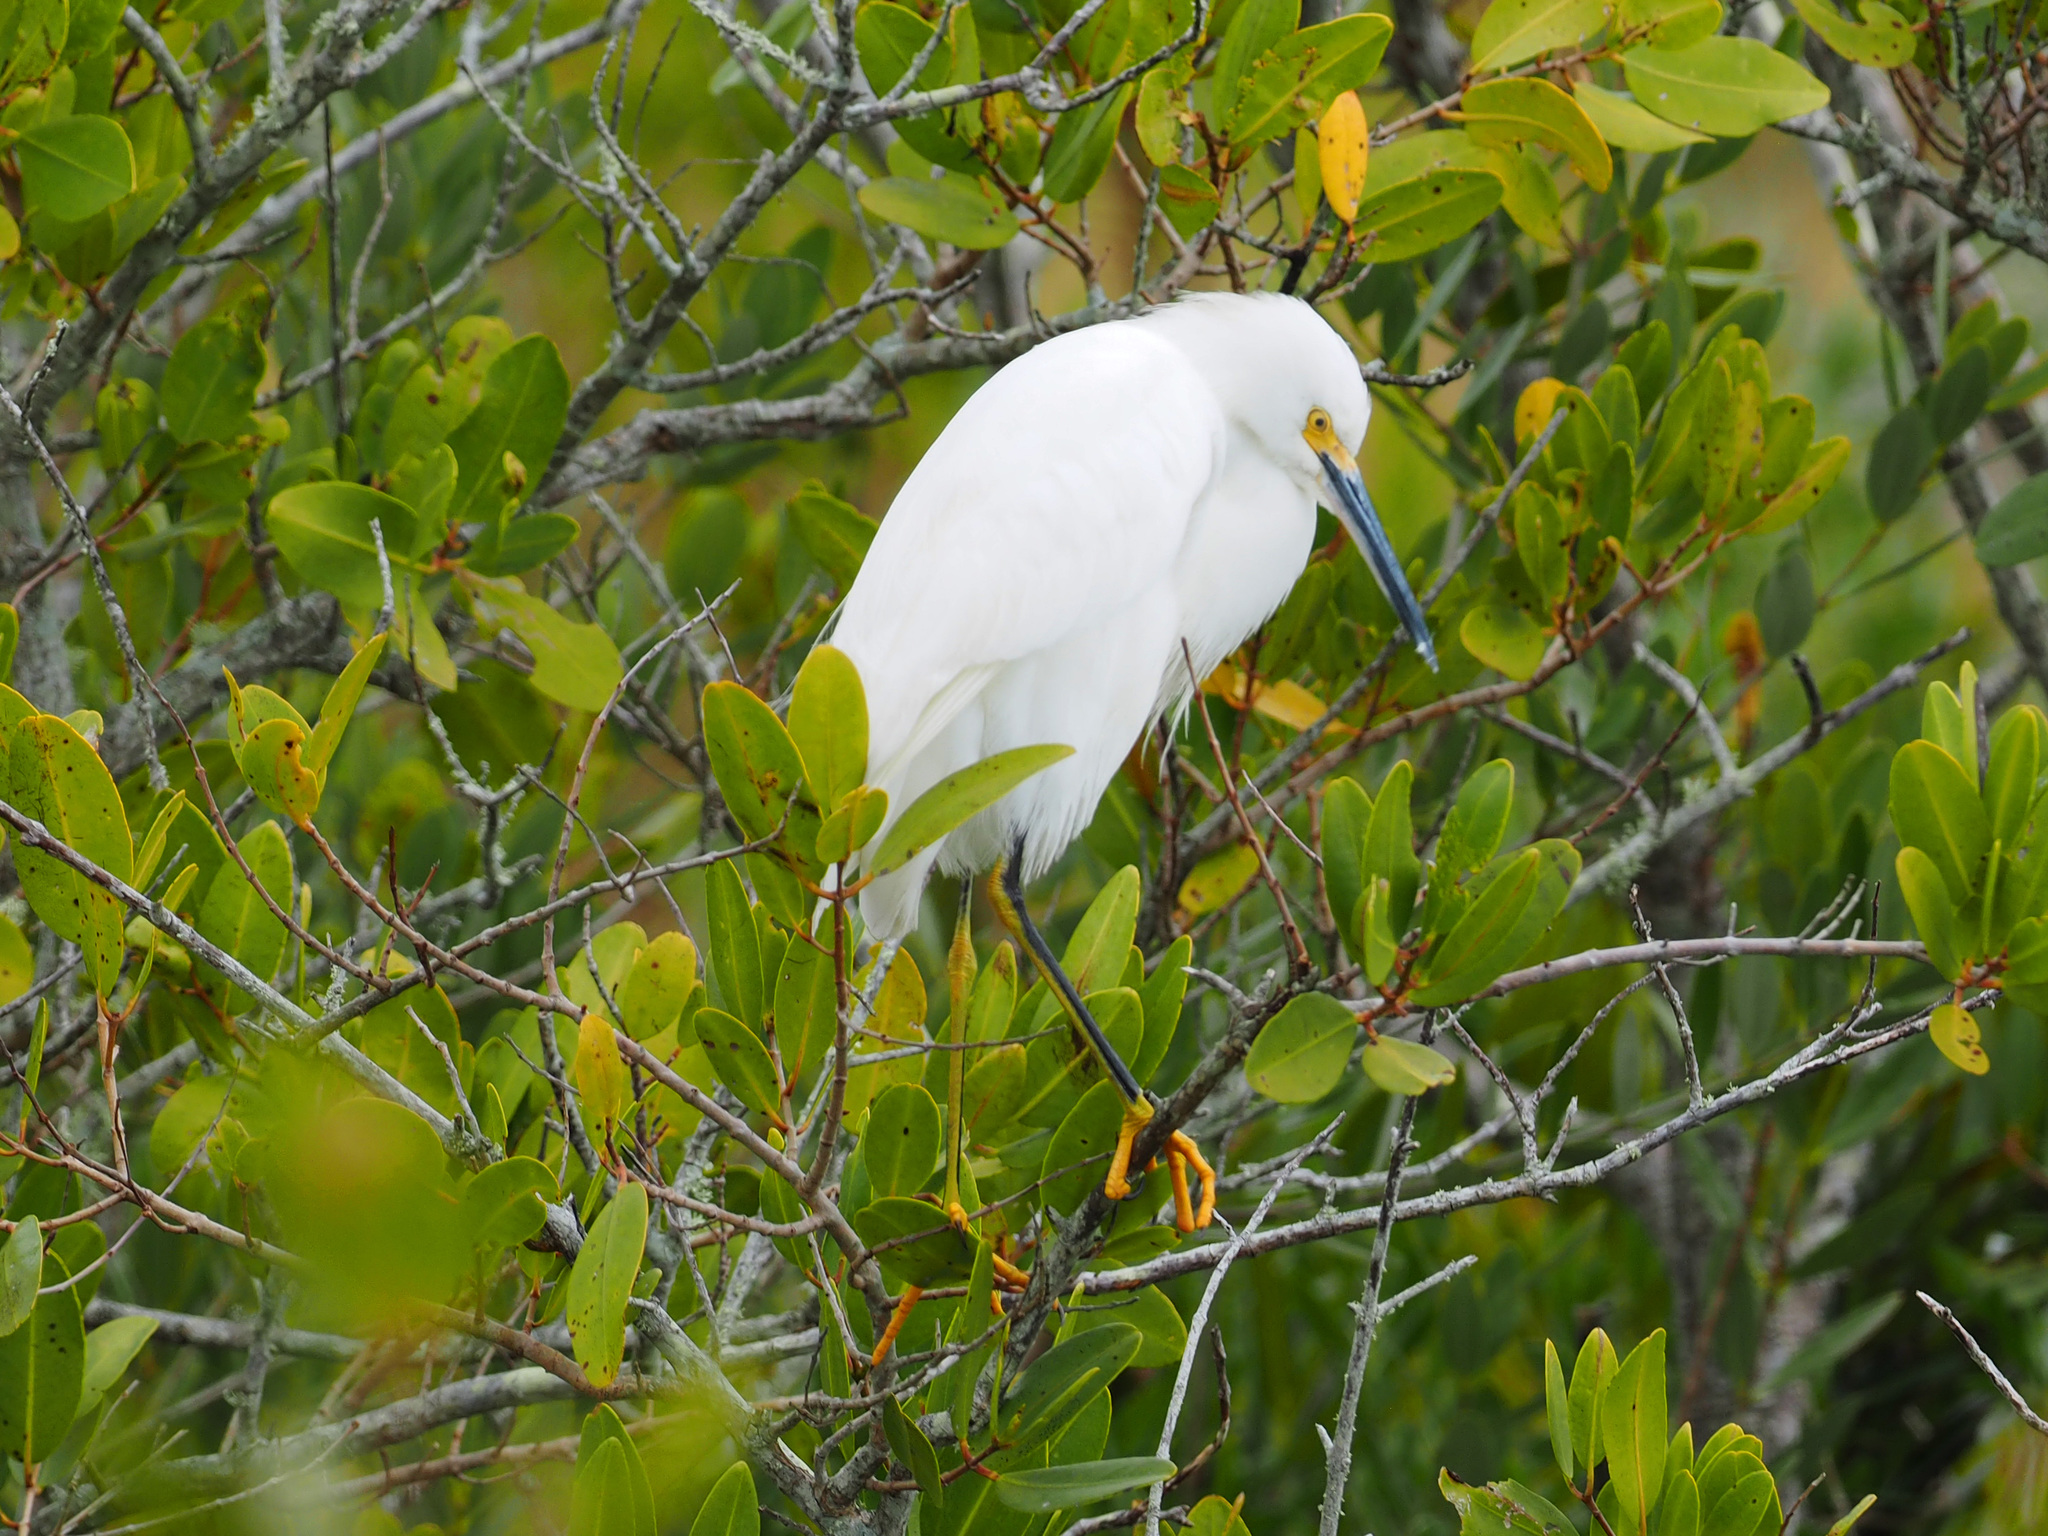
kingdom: Animalia
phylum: Chordata
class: Aves
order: Pelecaniformes
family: Ardeidae
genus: Egretta
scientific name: Egretta thula
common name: Snowy egret
